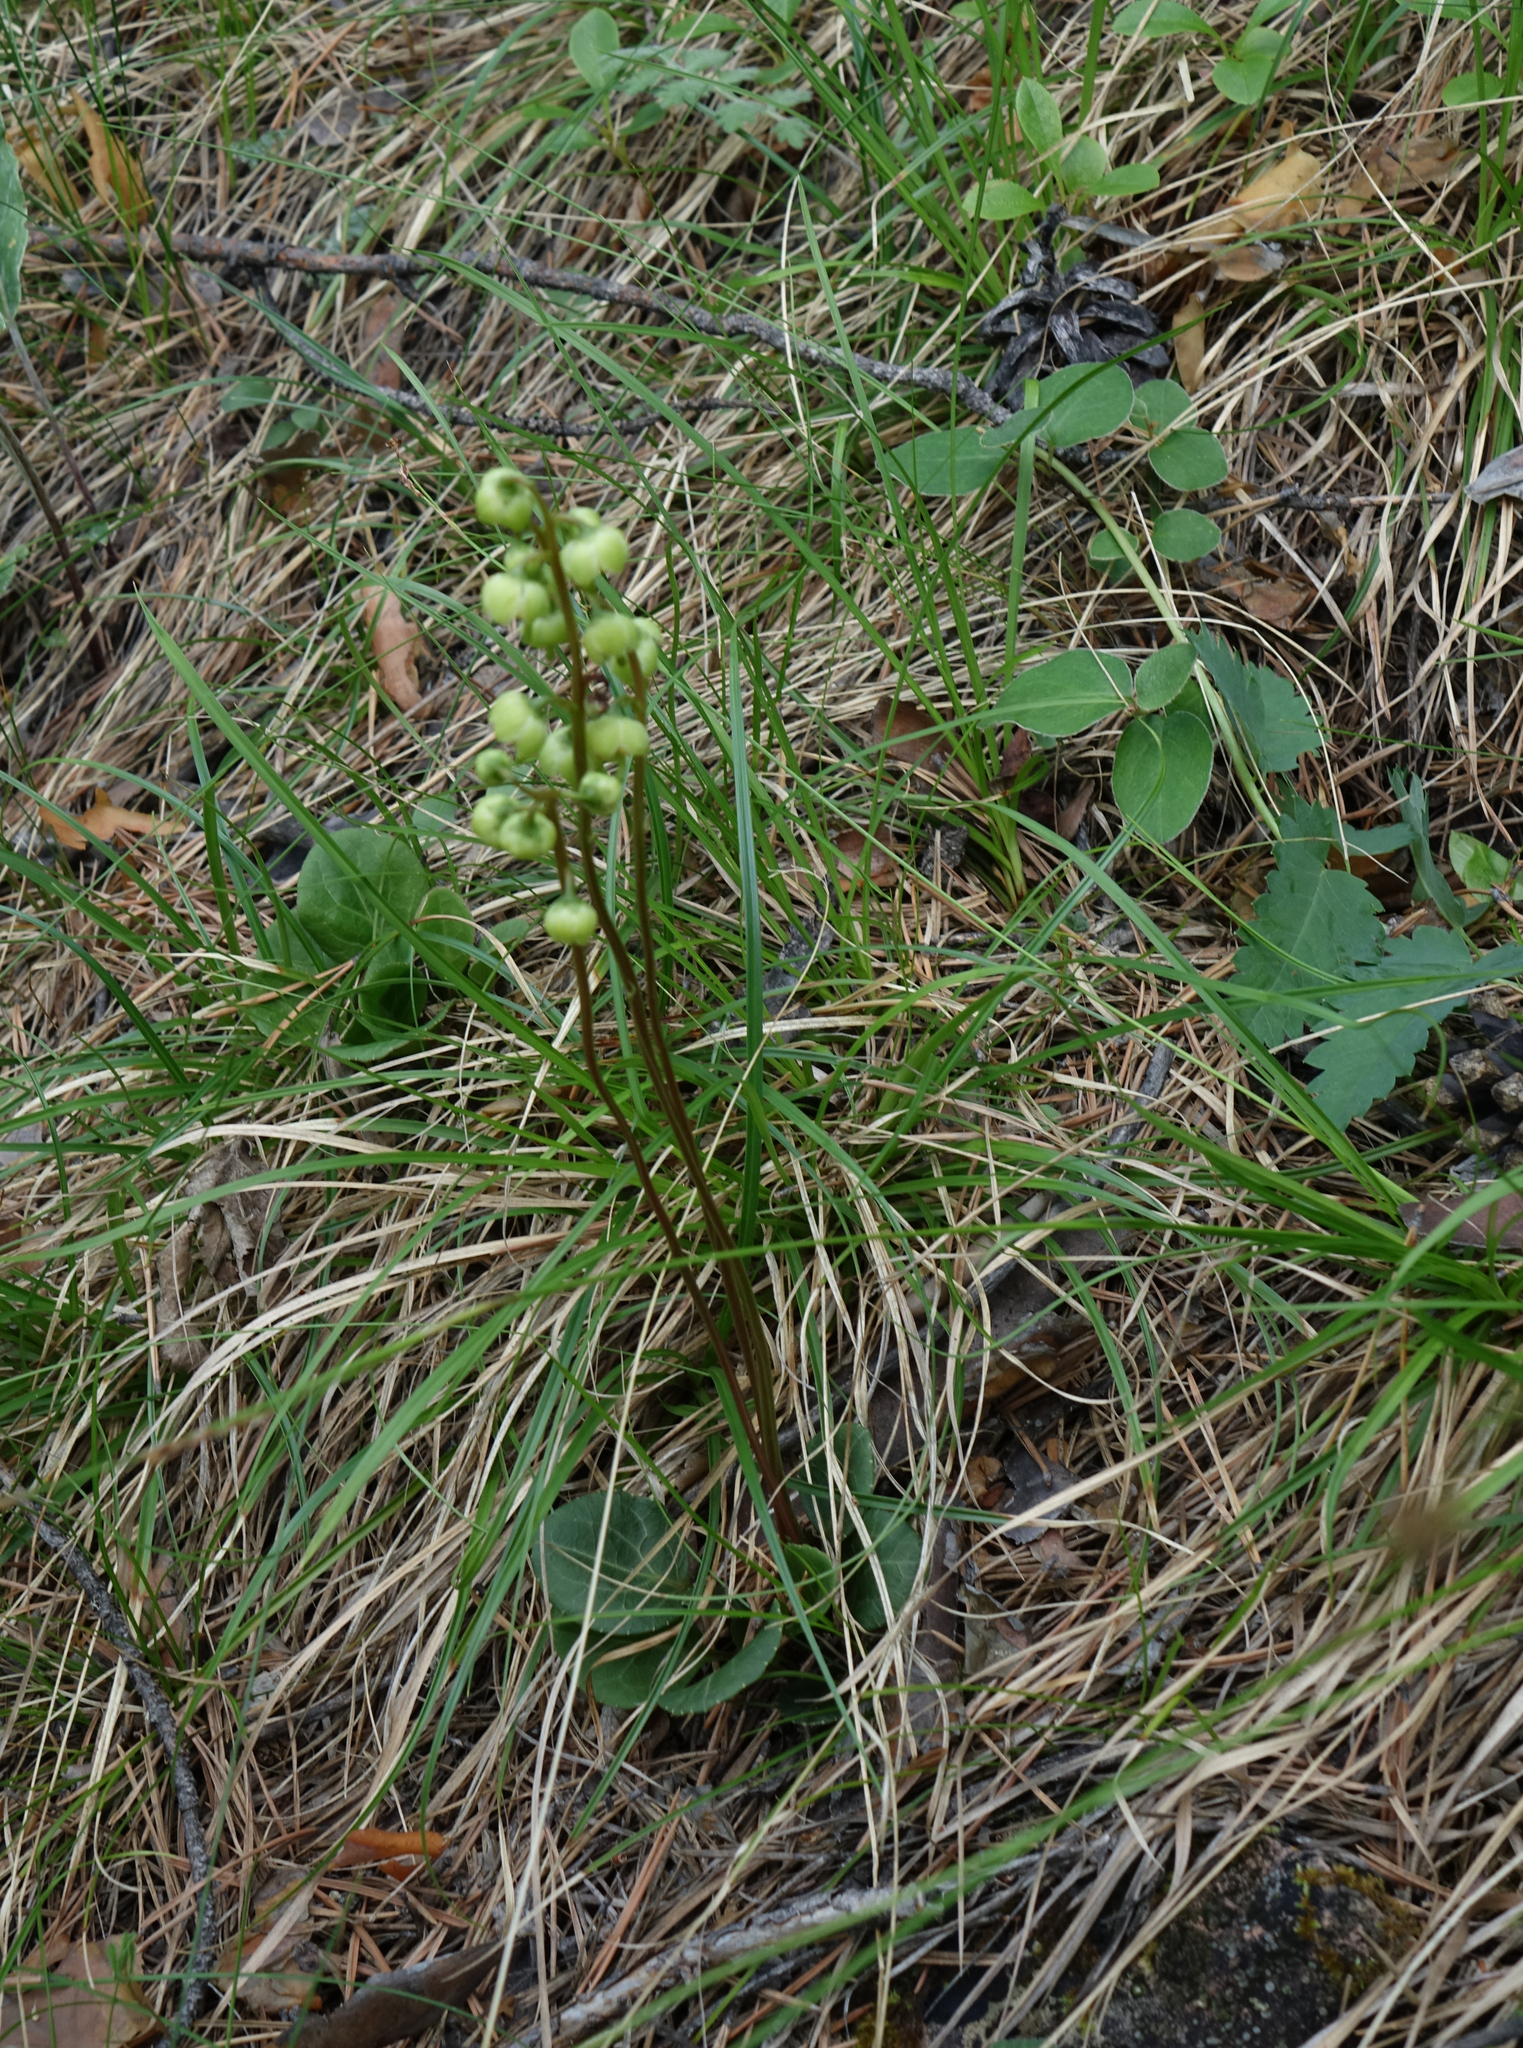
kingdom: Plantae
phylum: Tracheophyta
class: Magnoliopsida
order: Ericales
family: Ericaceae
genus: Pyrola
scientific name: Pyrola chlorantha
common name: Green wintergreen
